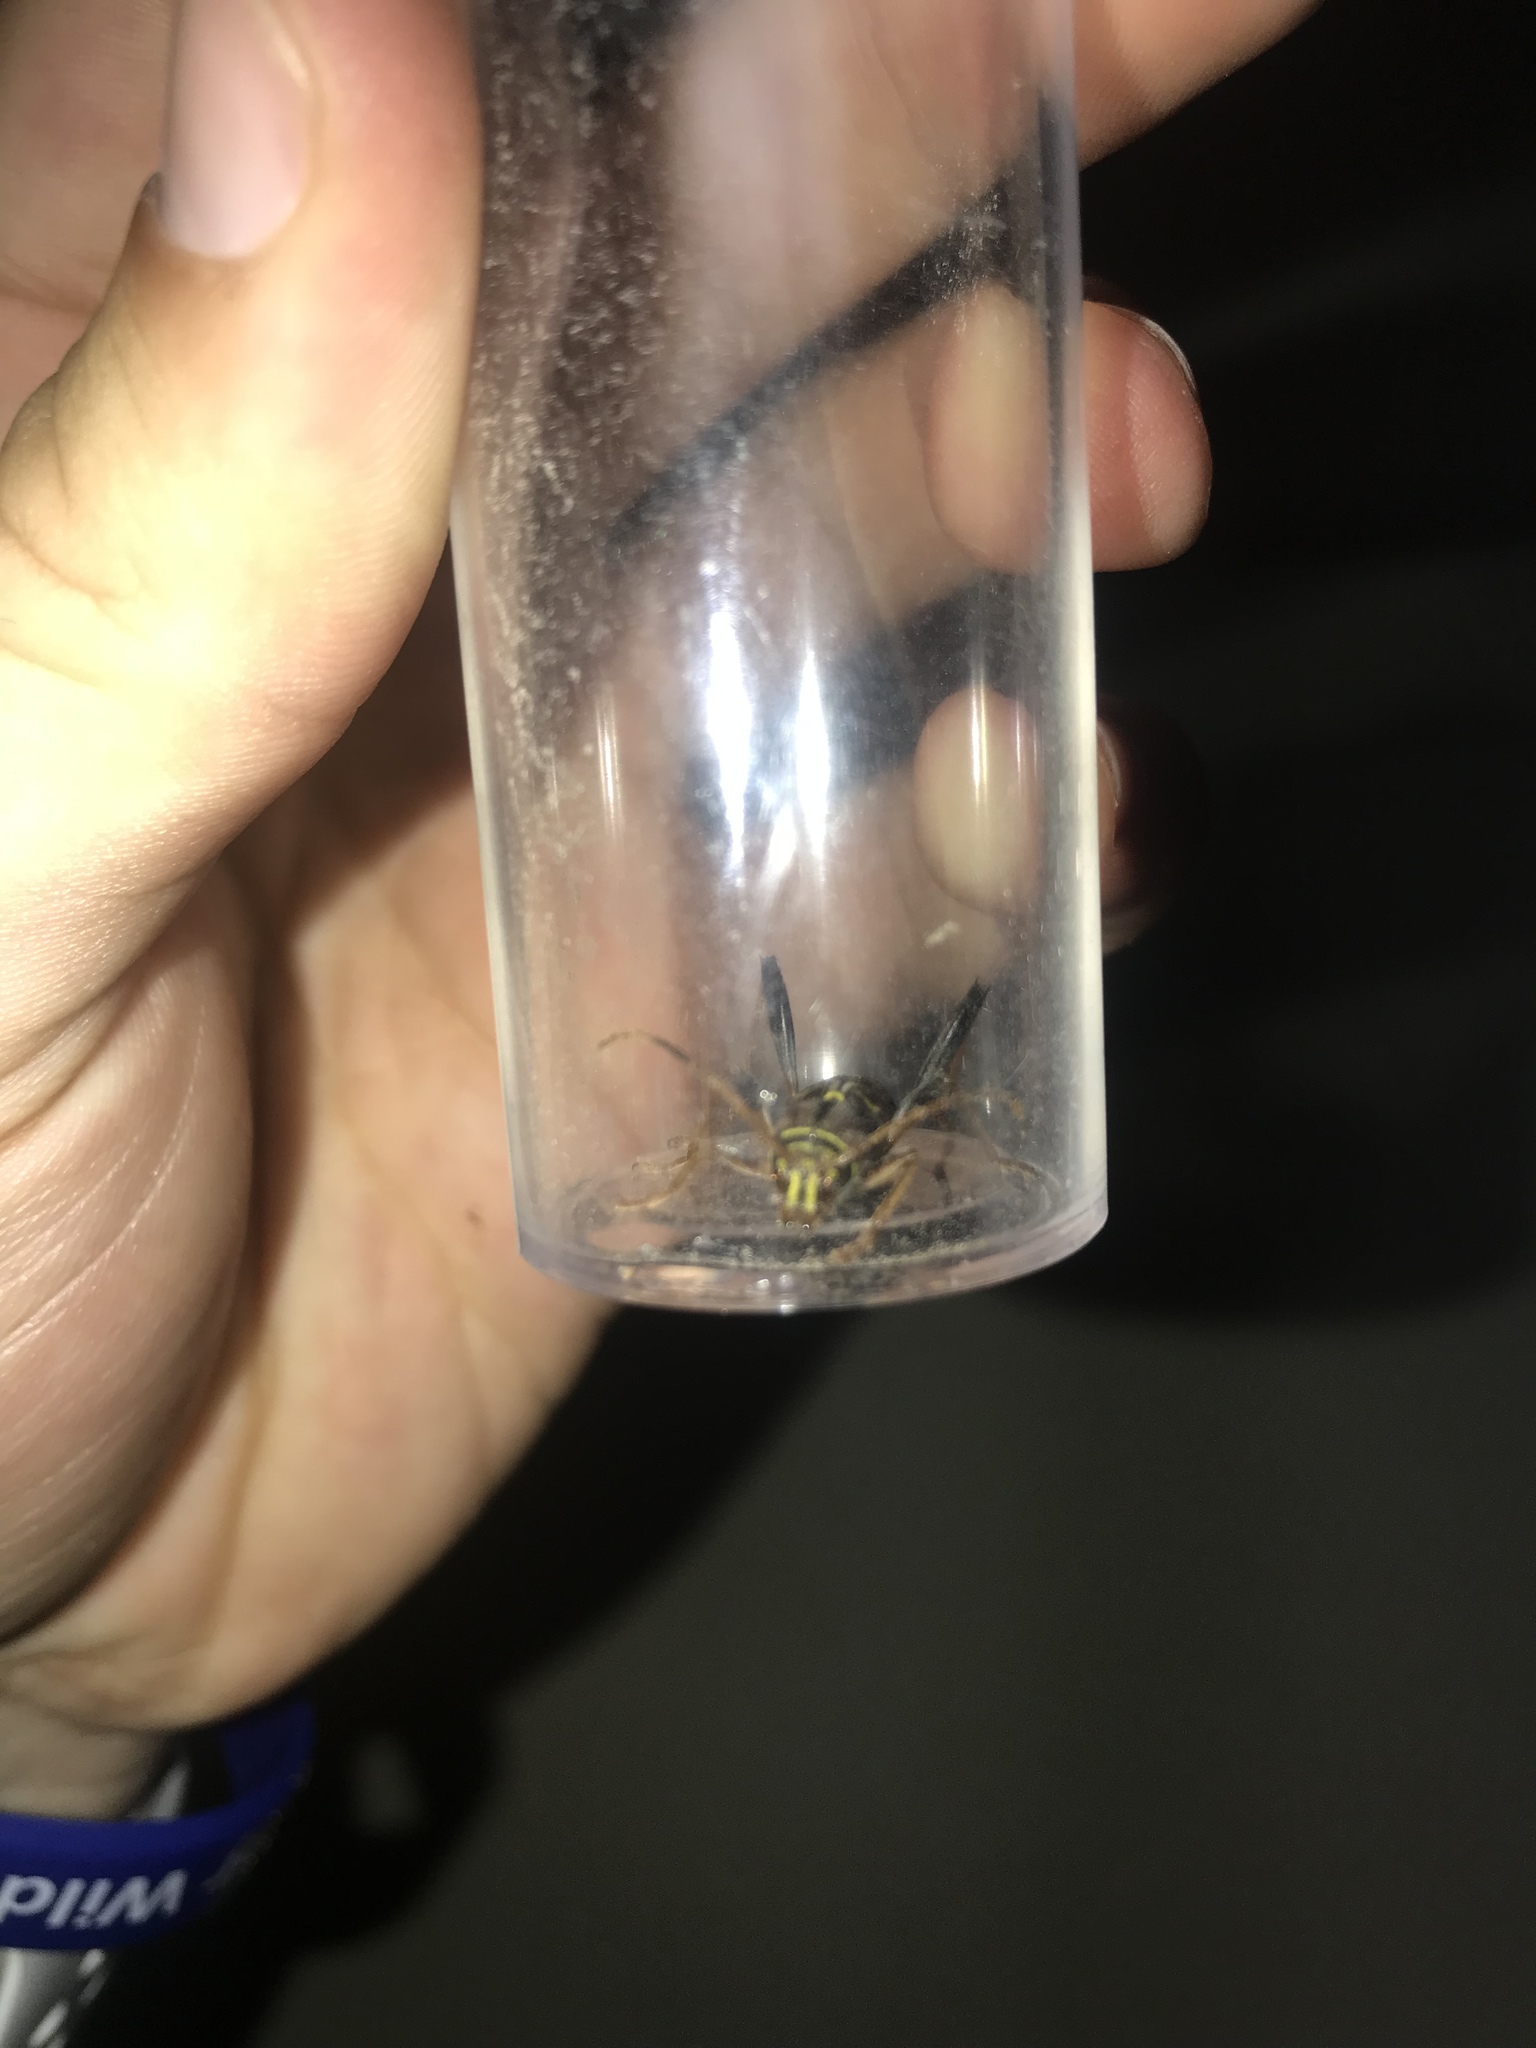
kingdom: Animalia
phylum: Arthropoda
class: Insecta
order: Coleoptera
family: Cerambycidae
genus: Neoclytus
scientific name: Neoclytus mucronatus
